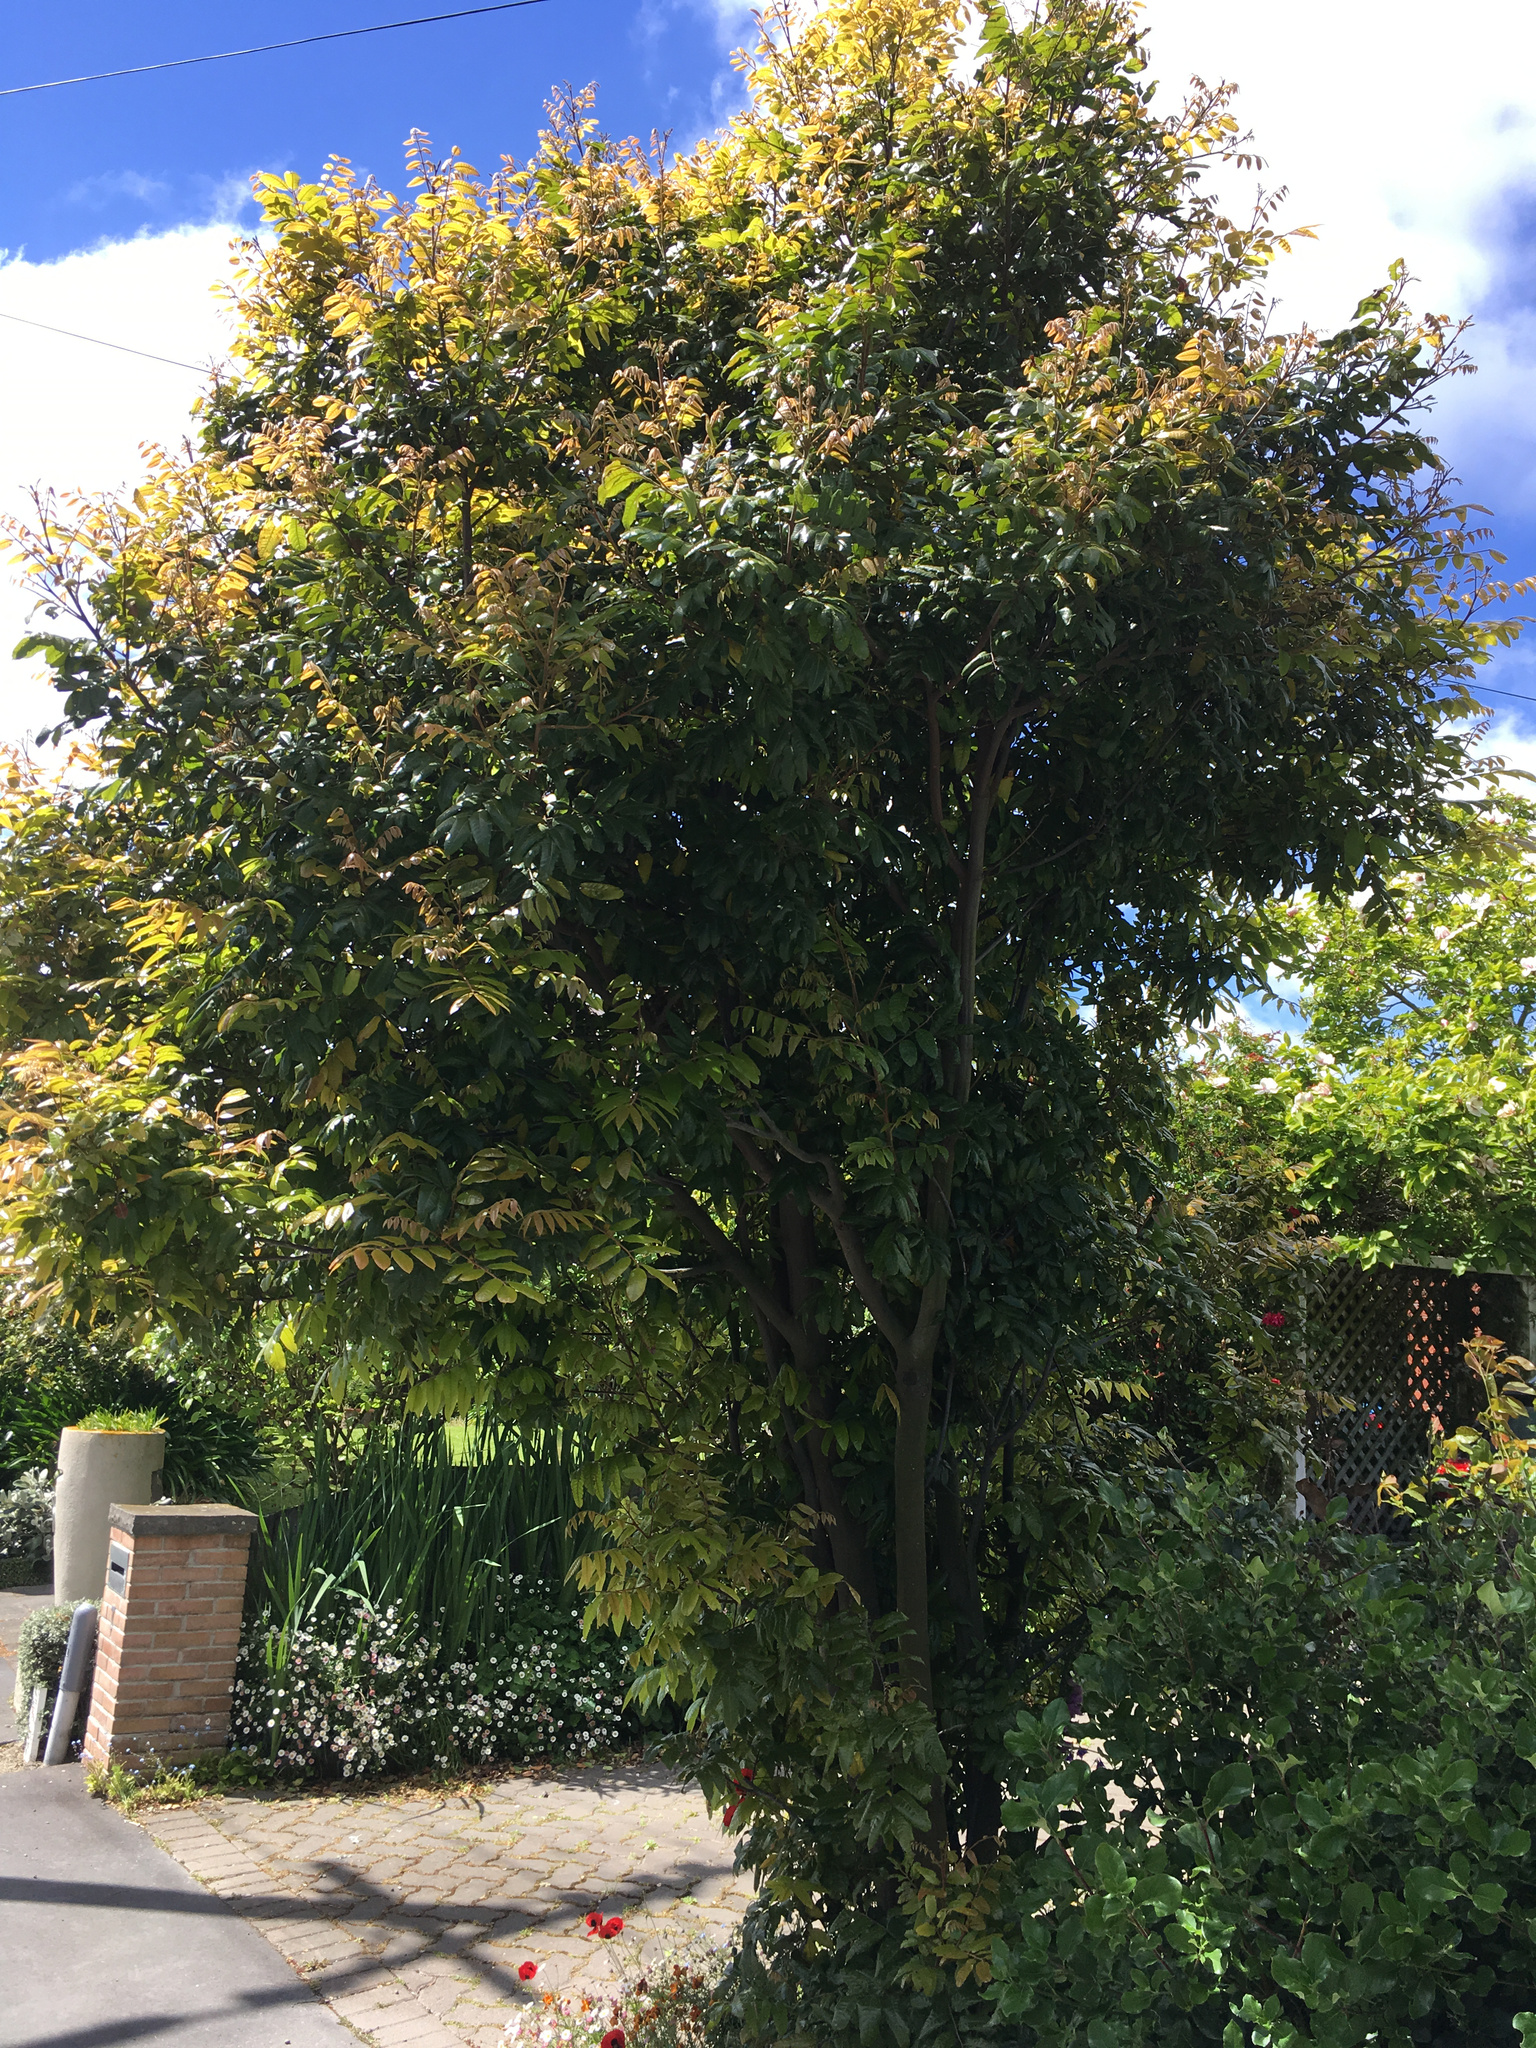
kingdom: Plantae
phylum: Tracheophyta
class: Magnoliopsida
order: Sapindales
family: Sapindaceae
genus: Alectryon
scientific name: Alectryon excelsus
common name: Three kings titoki
